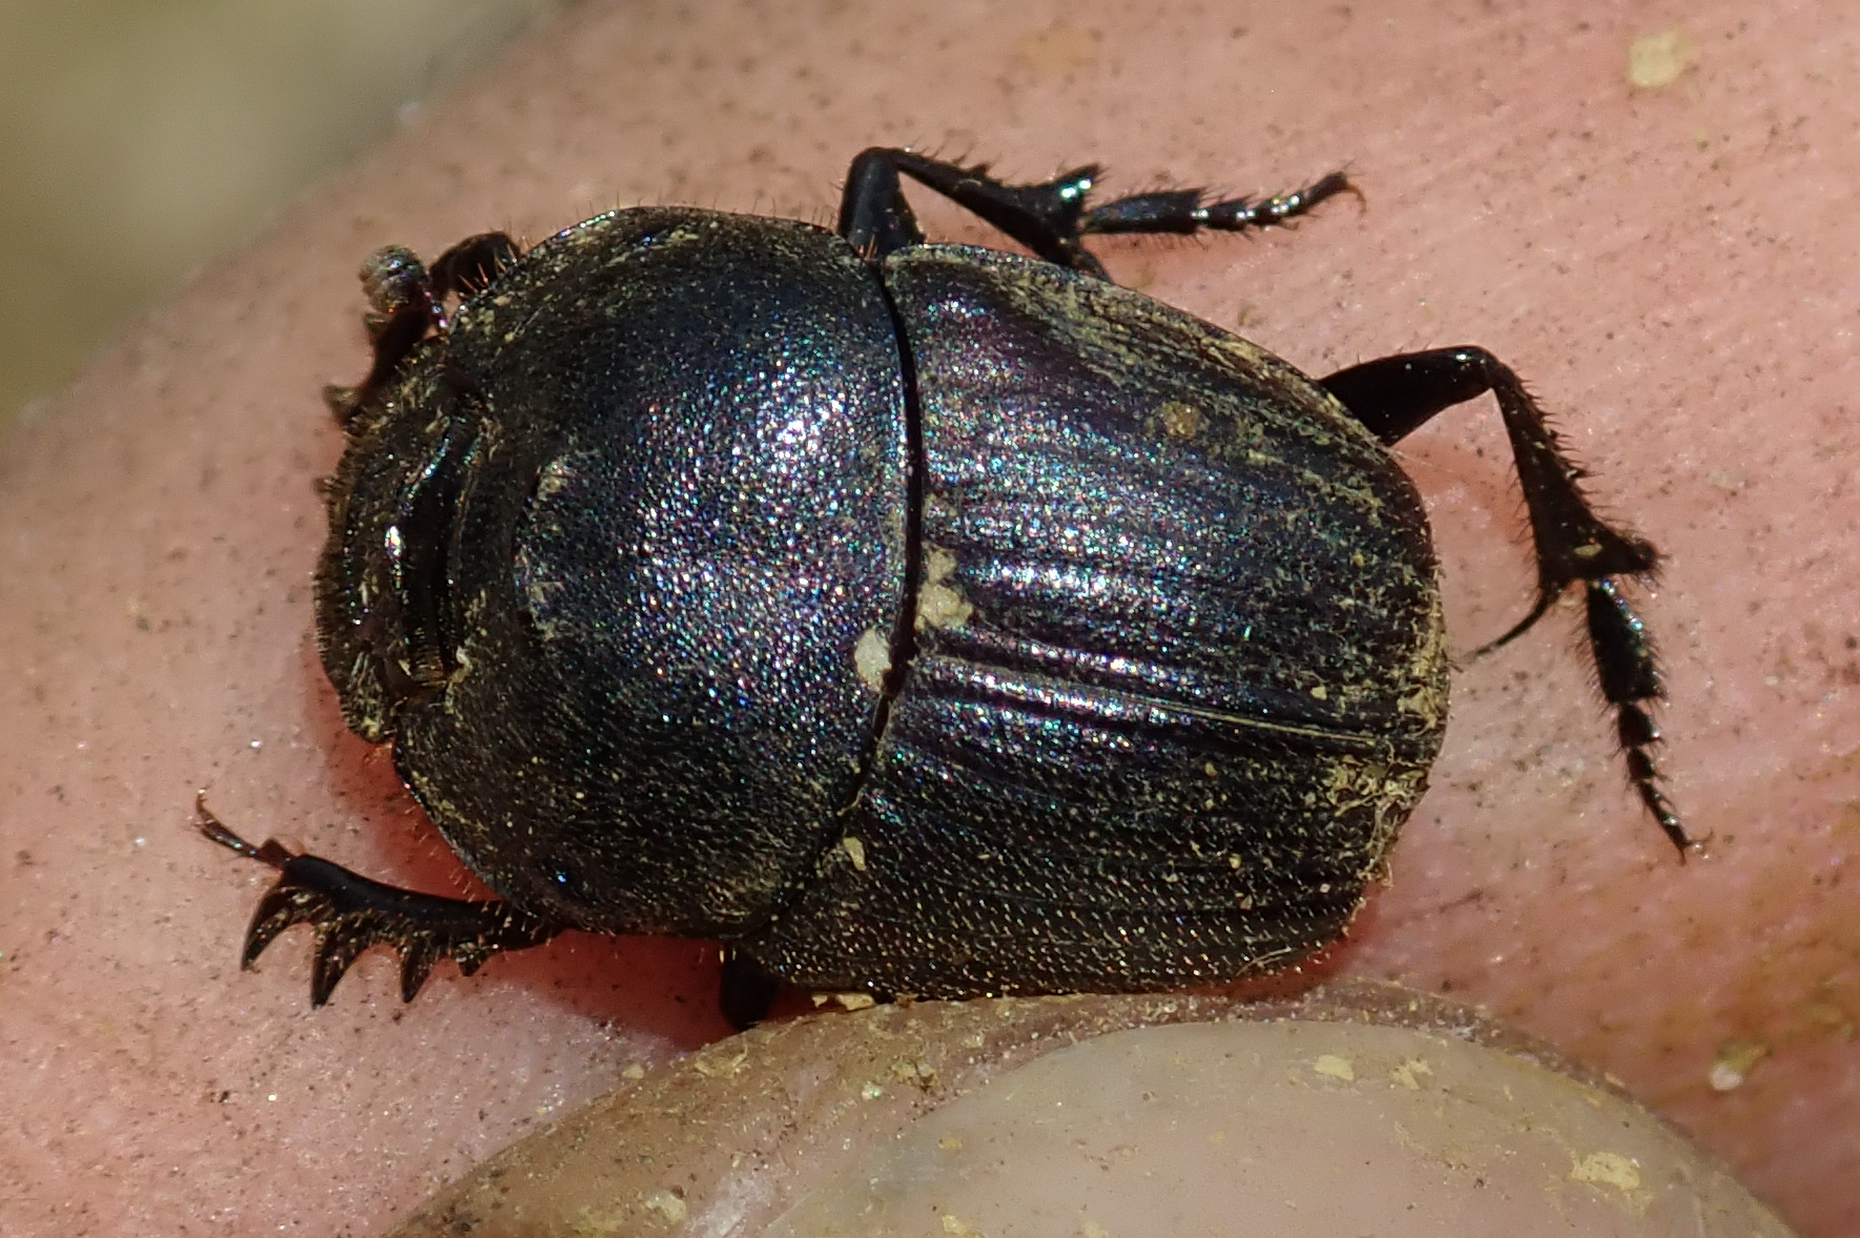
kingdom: Animalia
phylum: Arthropoda
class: Insecta
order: Coleoptera
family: Scarabaeidae
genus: Phalops
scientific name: Phalops boschas
